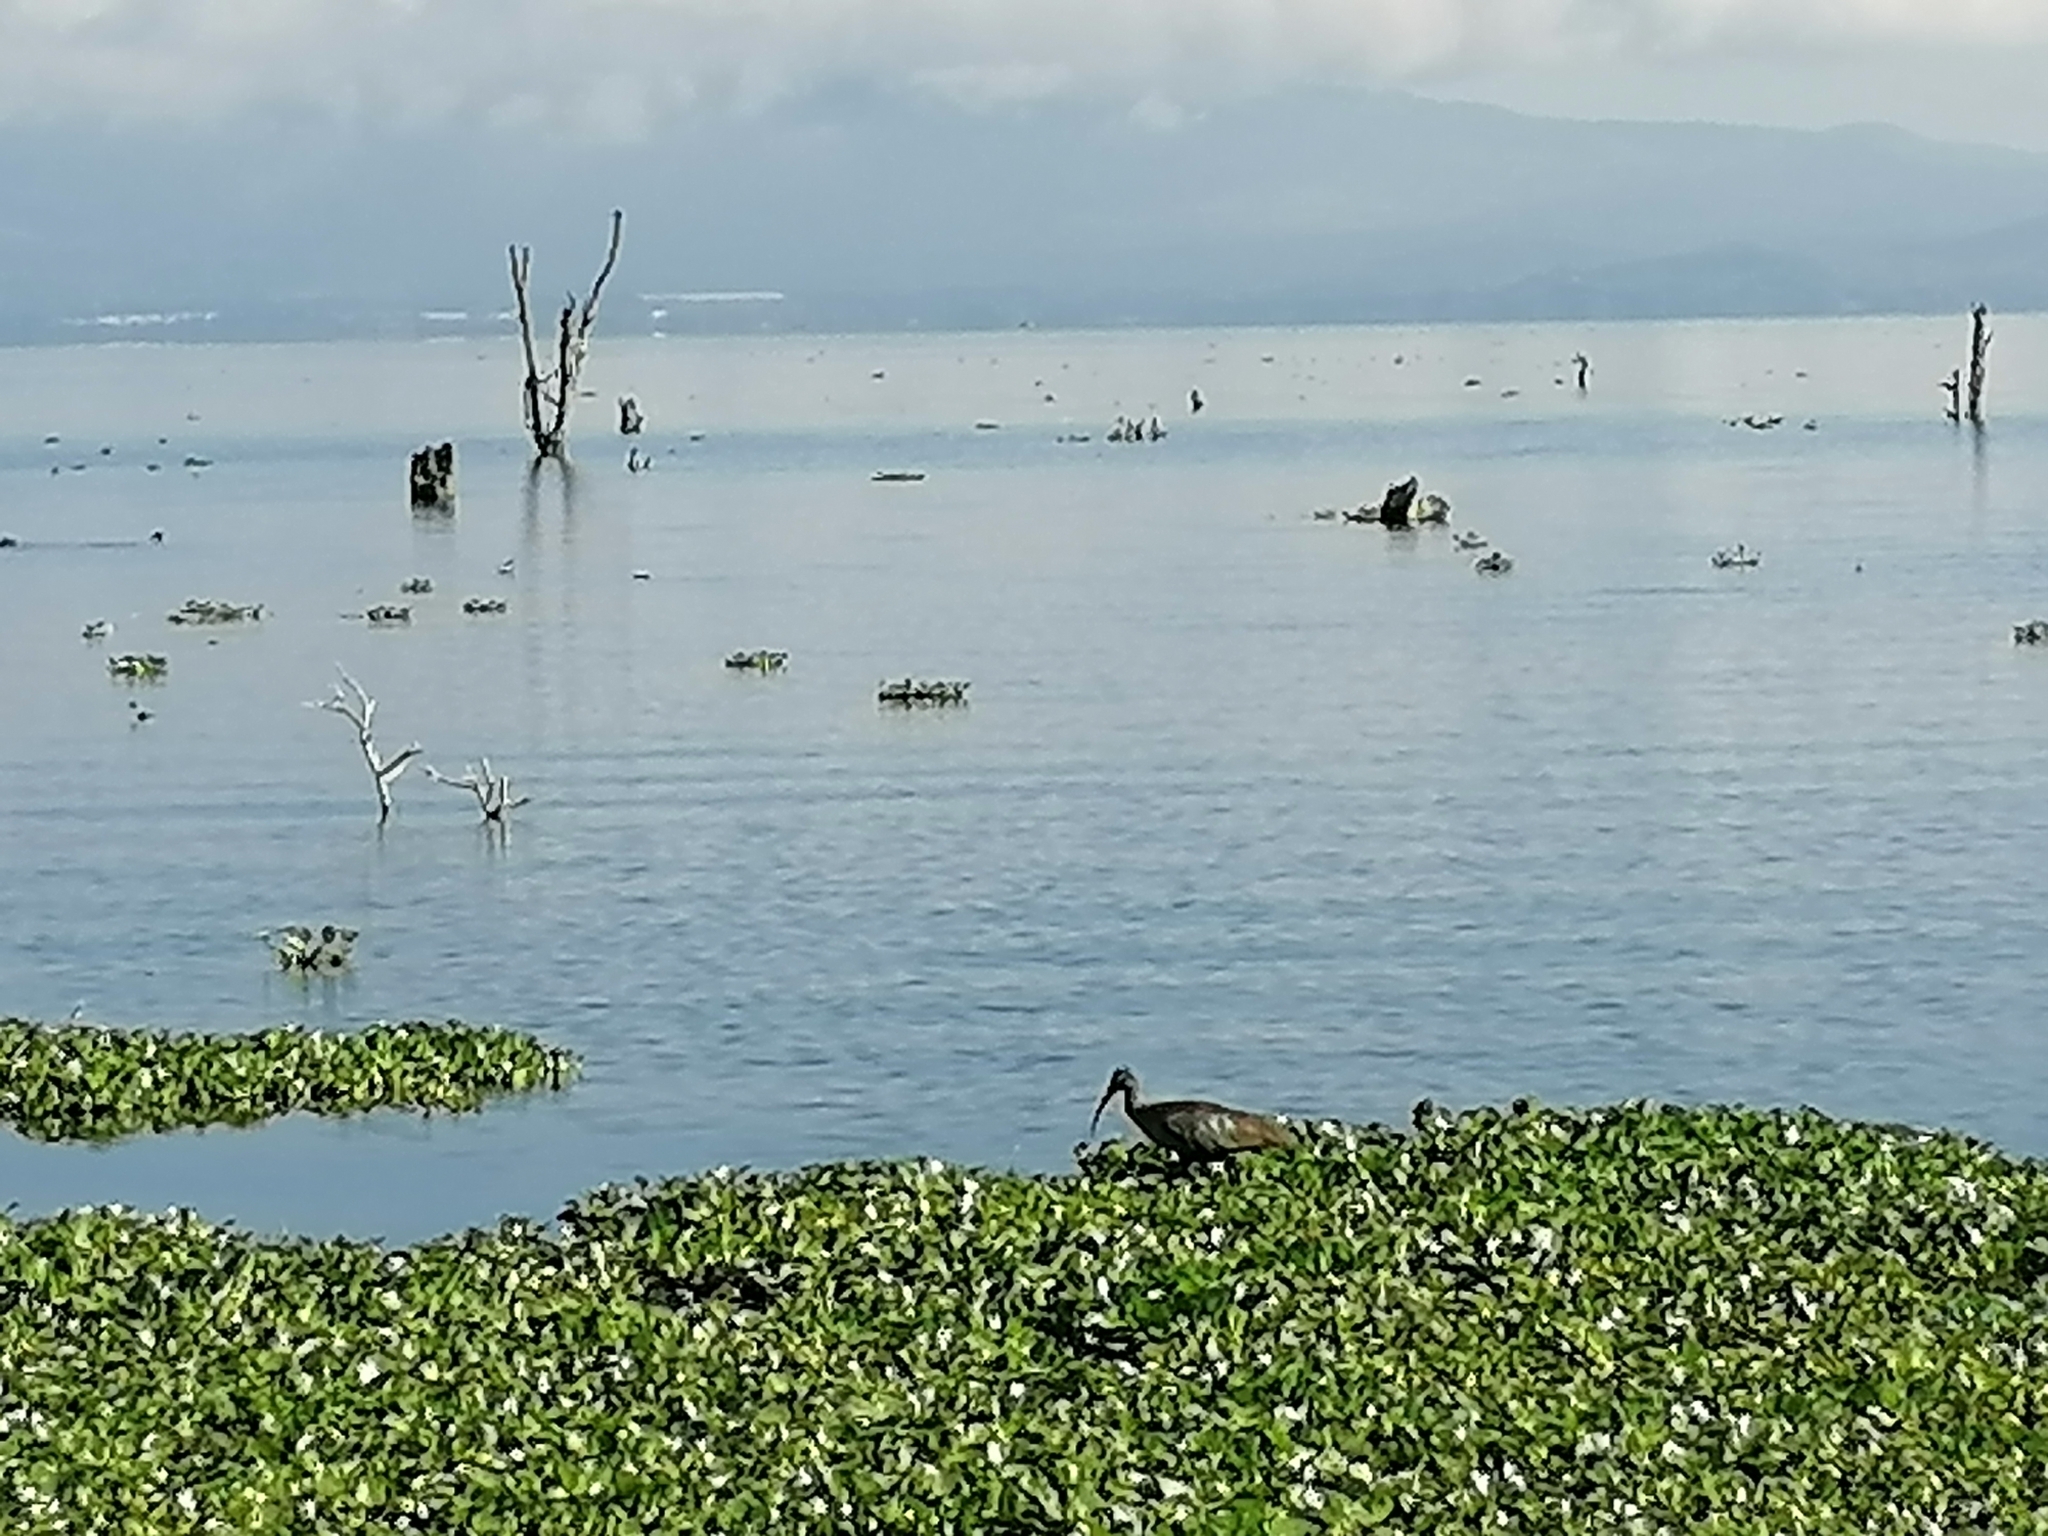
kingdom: Animalia
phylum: Chordata
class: Aves
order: Pelecaniformes
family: Threskiornithidae
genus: Bostrychia
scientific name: Bostrychia hagedash
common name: Hadada ibis
